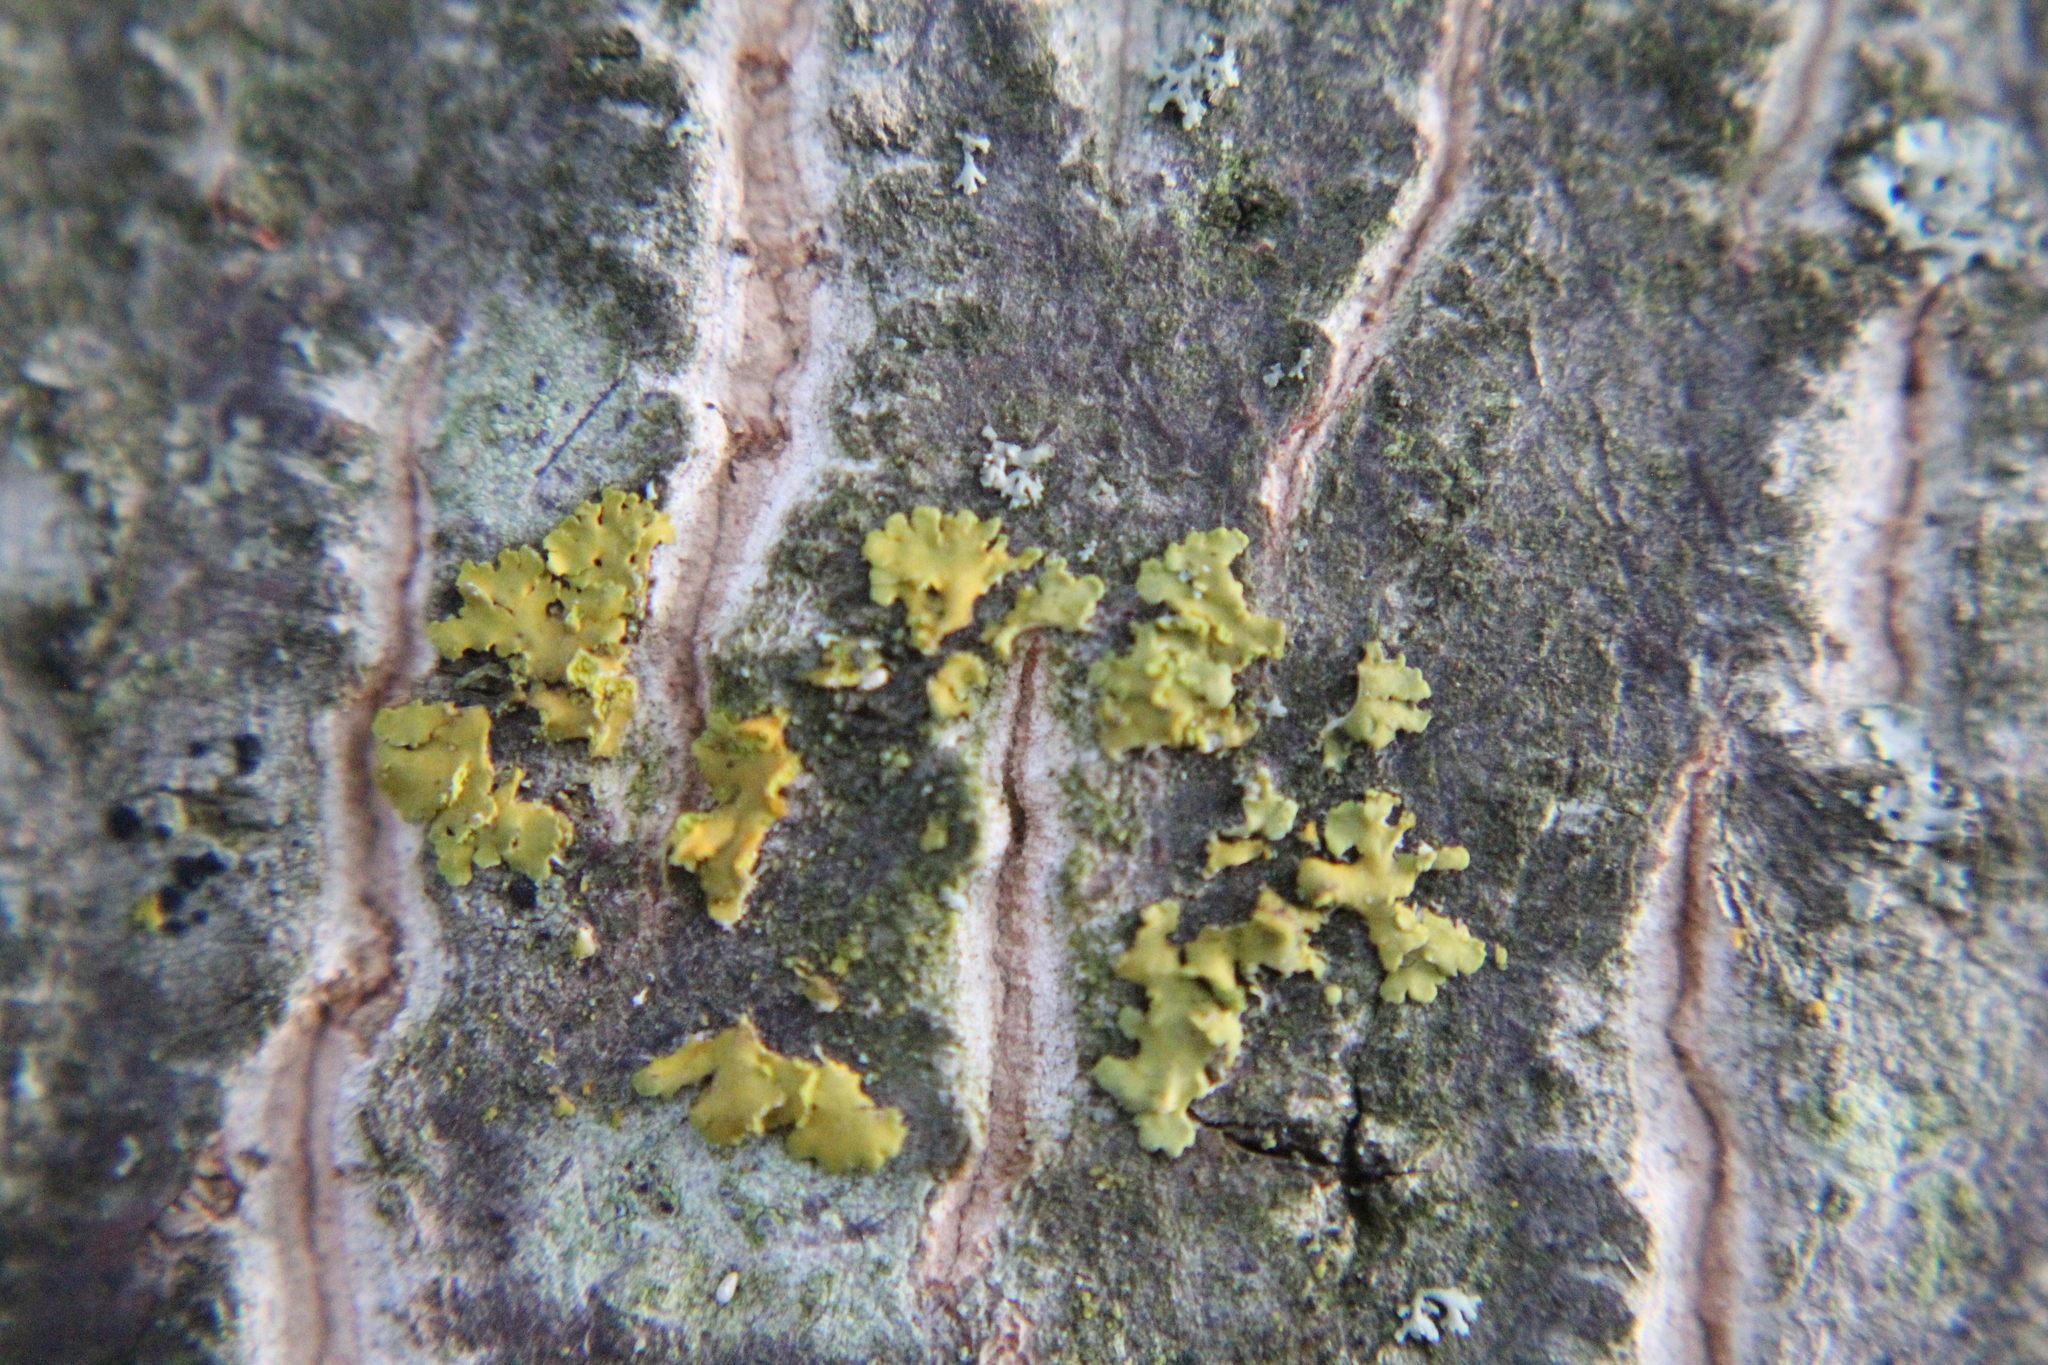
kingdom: Fungi
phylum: Ascomycota
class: Lecanoromycetes
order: Teloschistales
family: Teloschistaceae
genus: Oxneria
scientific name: Oxneria fallax
